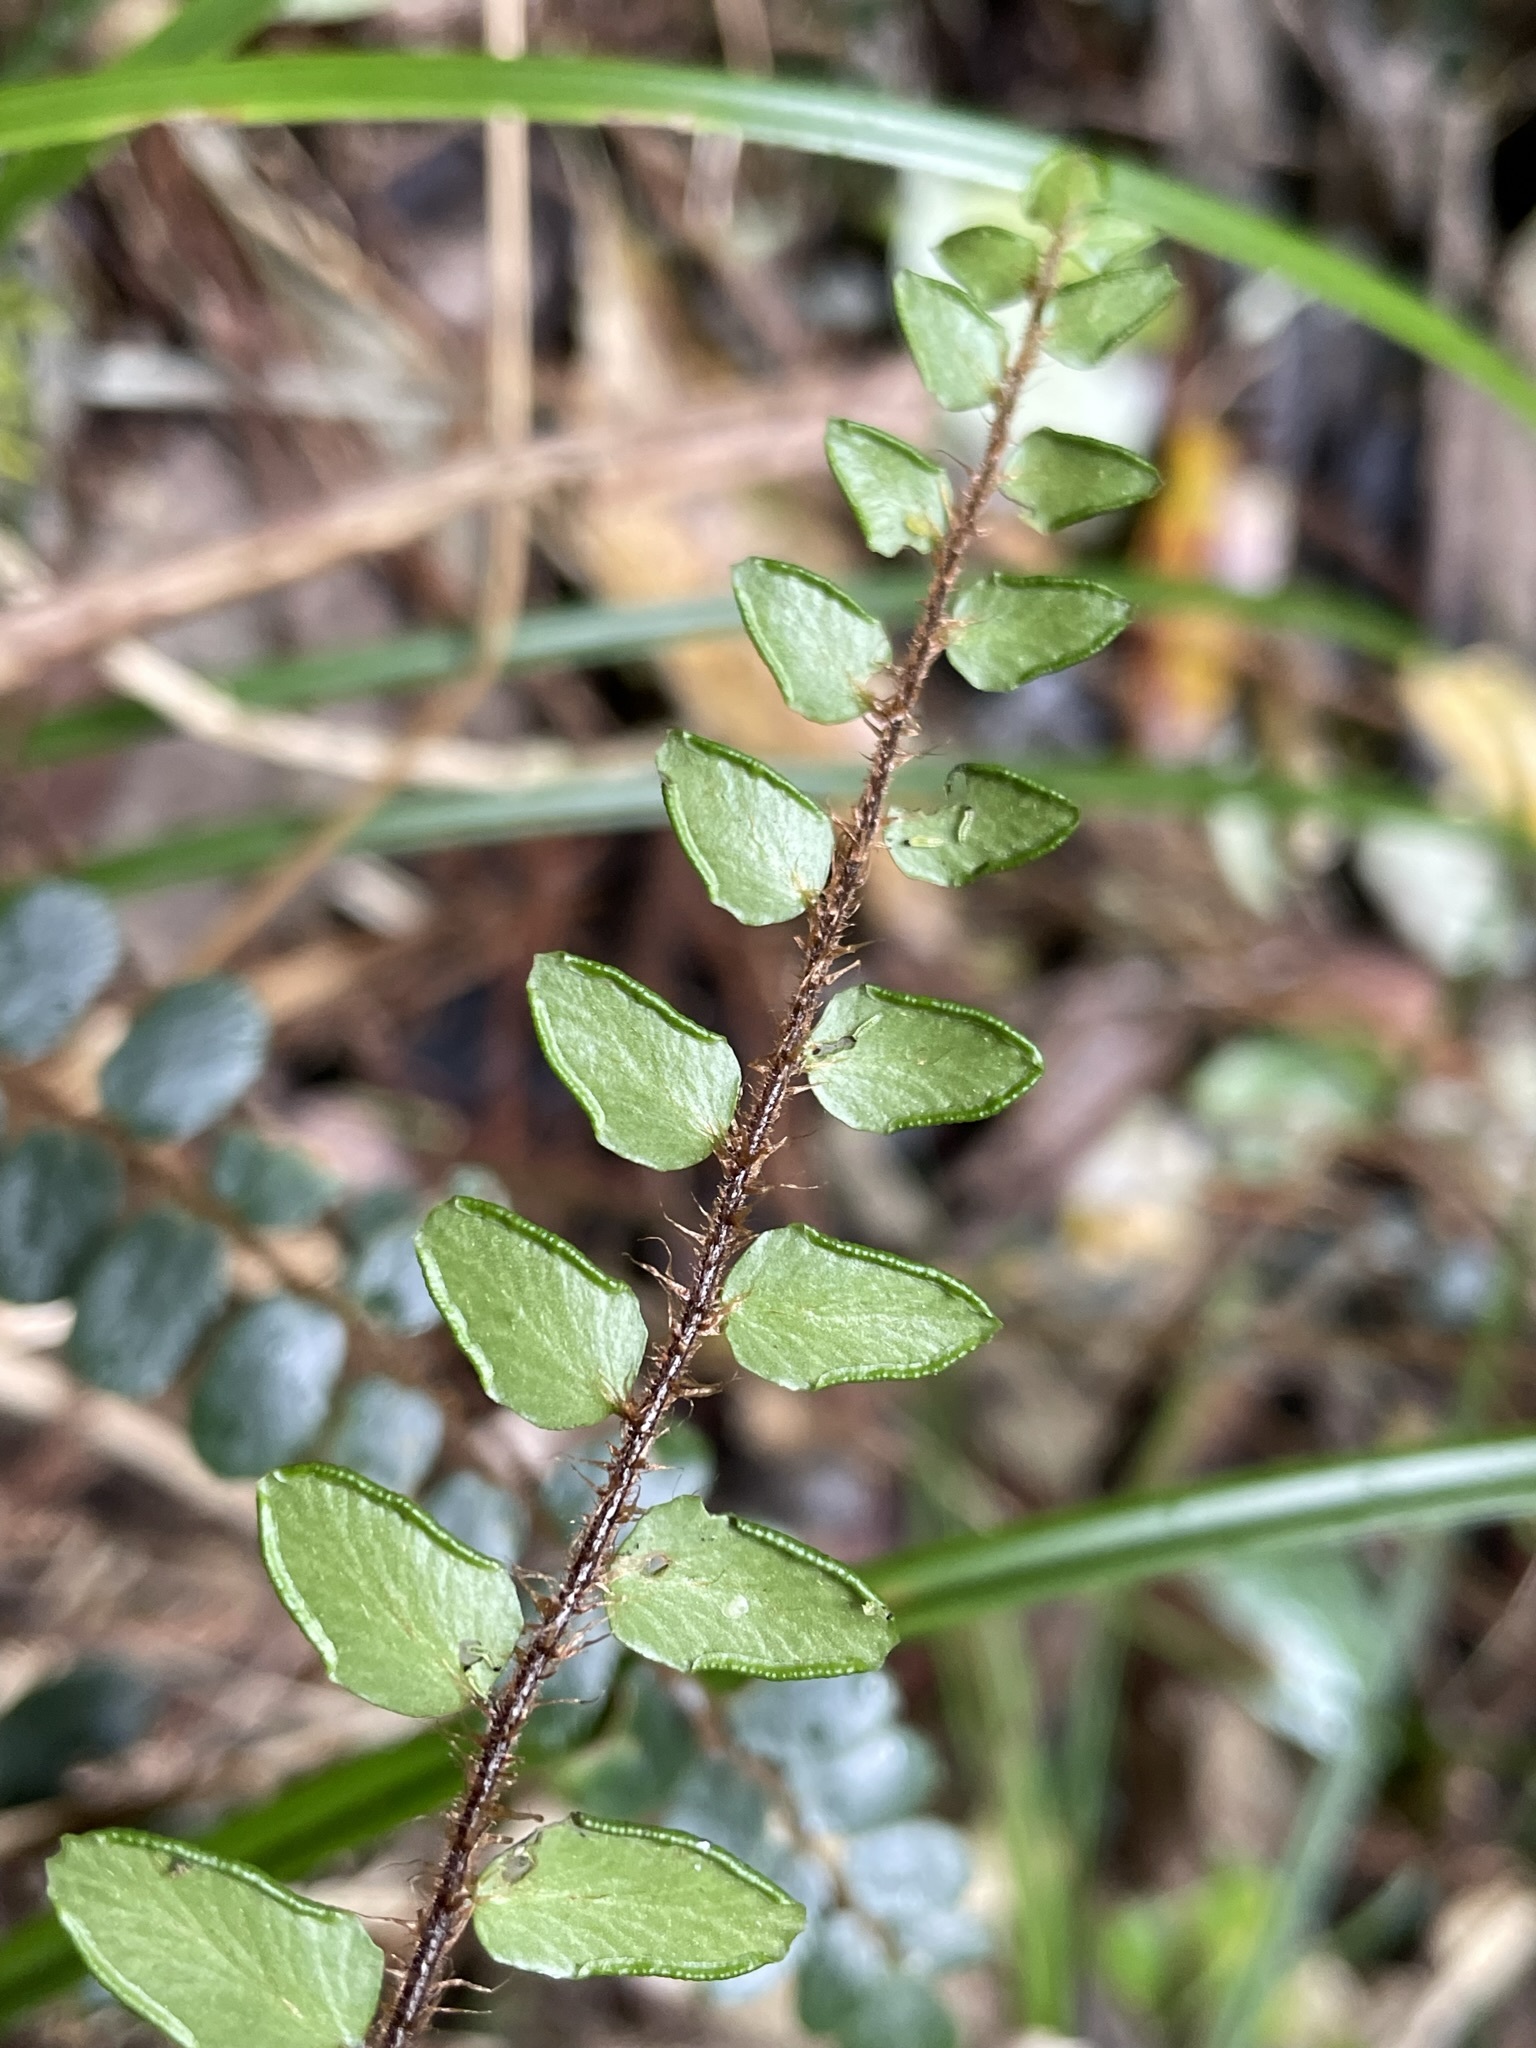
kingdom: Plantae
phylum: Tracheophyta
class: Polypodiopsida
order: Polypodiales
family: Pteridaceae
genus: Pellaea
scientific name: Pellaea rotundifolia
